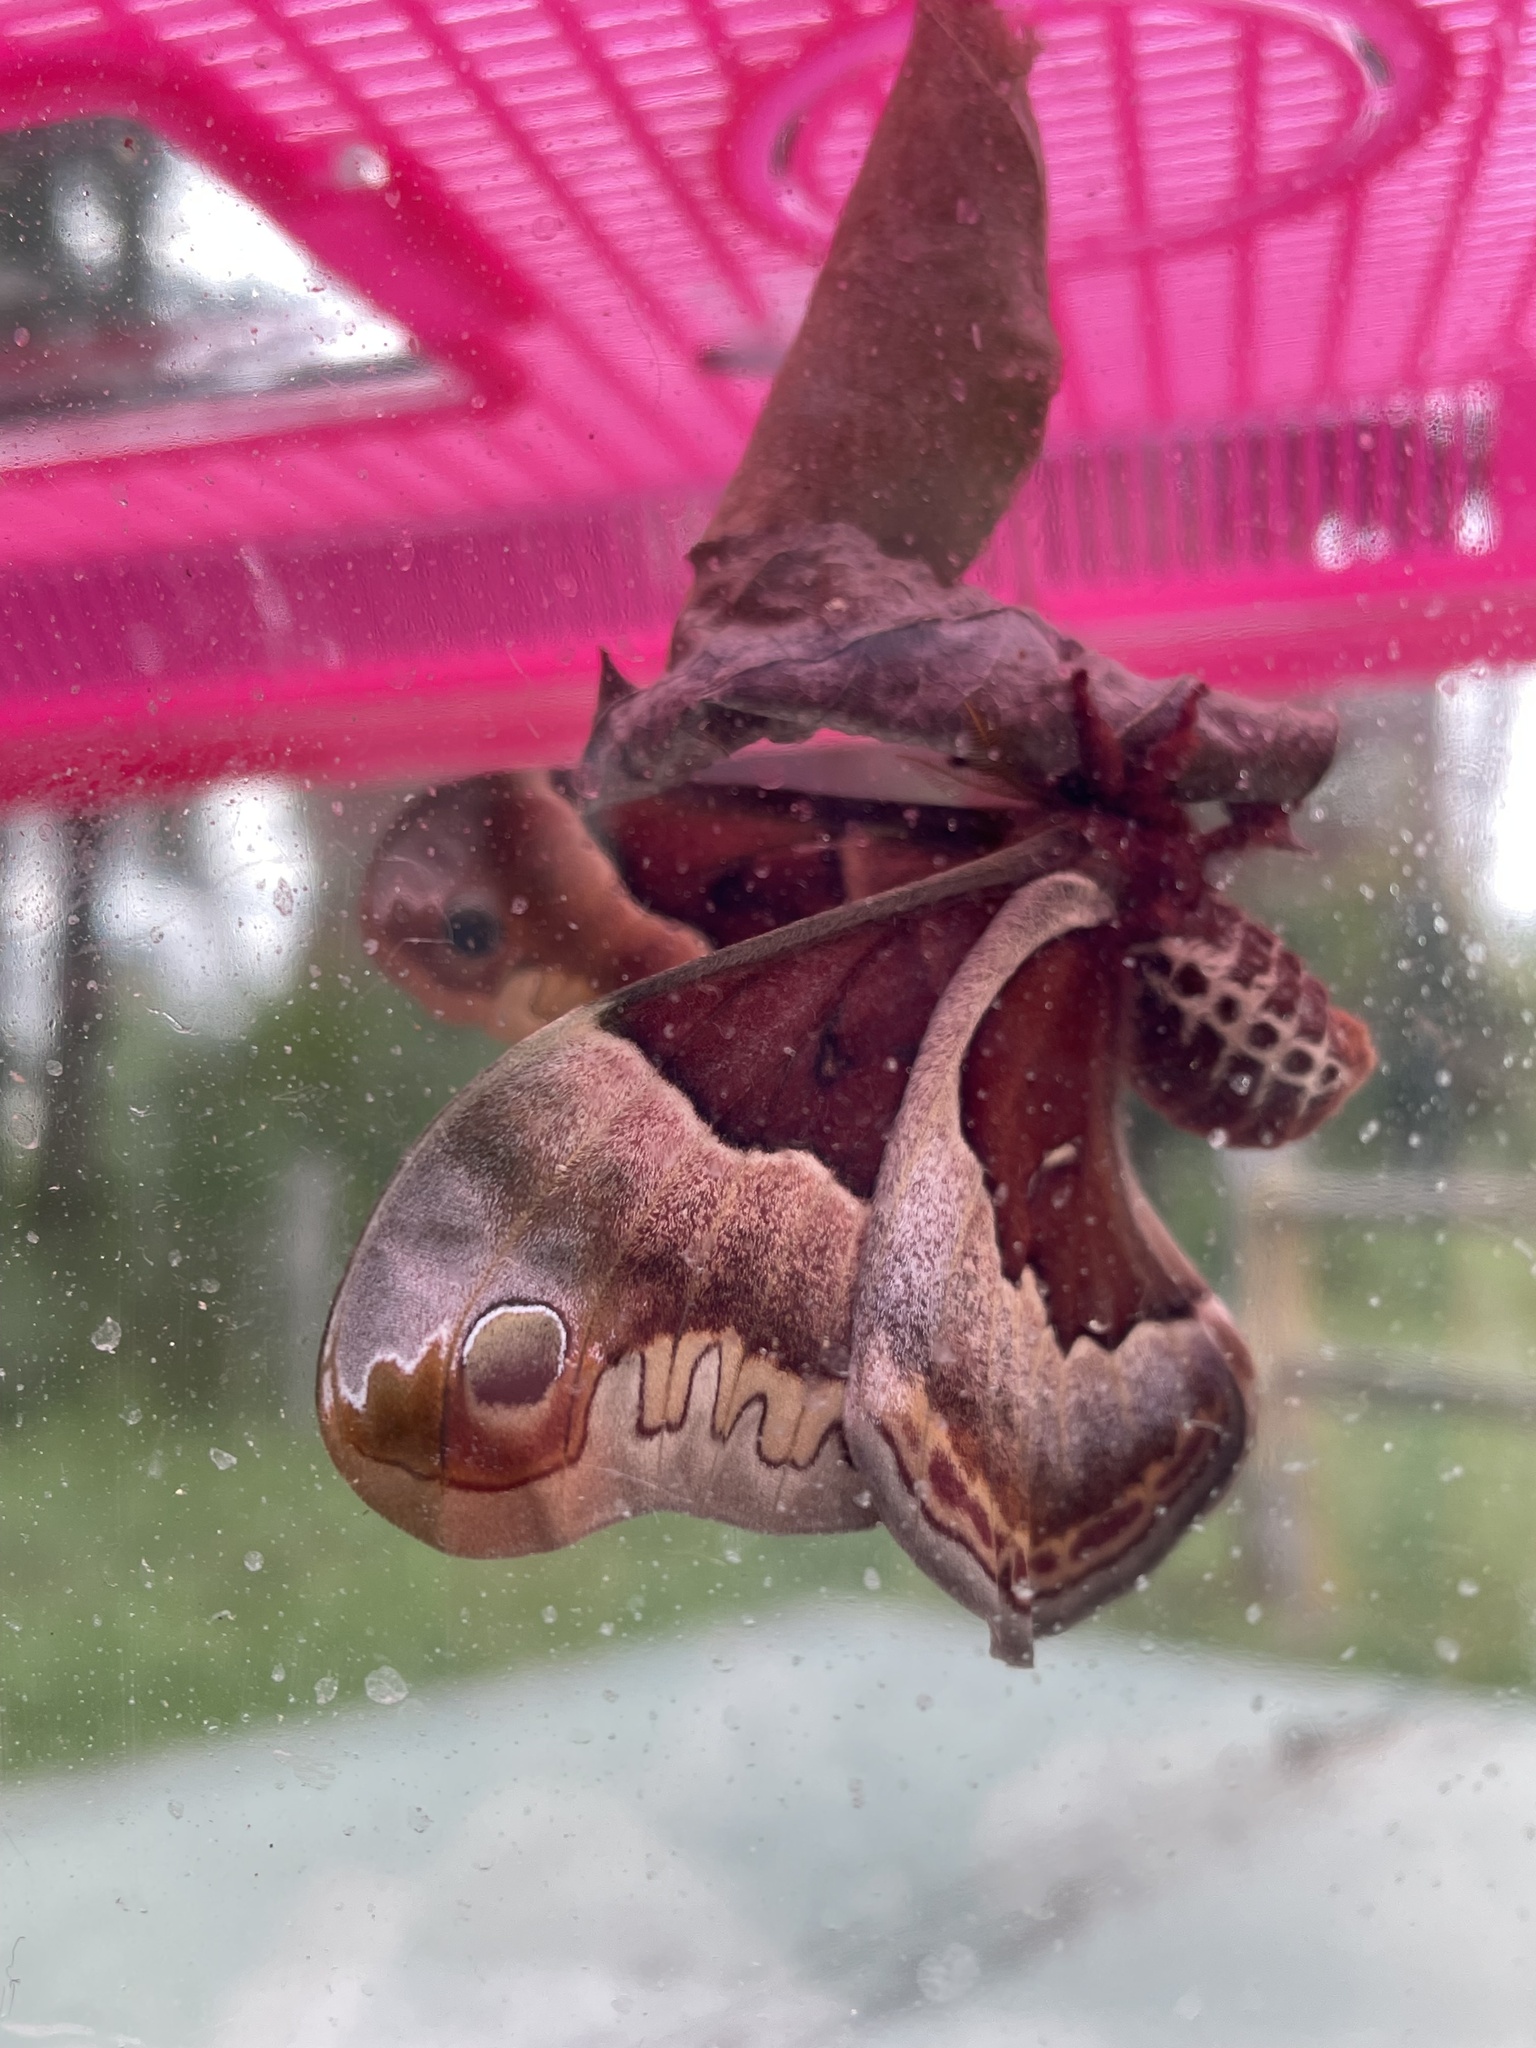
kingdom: Animalia
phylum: Arthropoda
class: Insecta
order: Lepidoptera
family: Saturniidae
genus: Callosamia
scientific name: Callosamia promethea
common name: Promethea silkmoth
